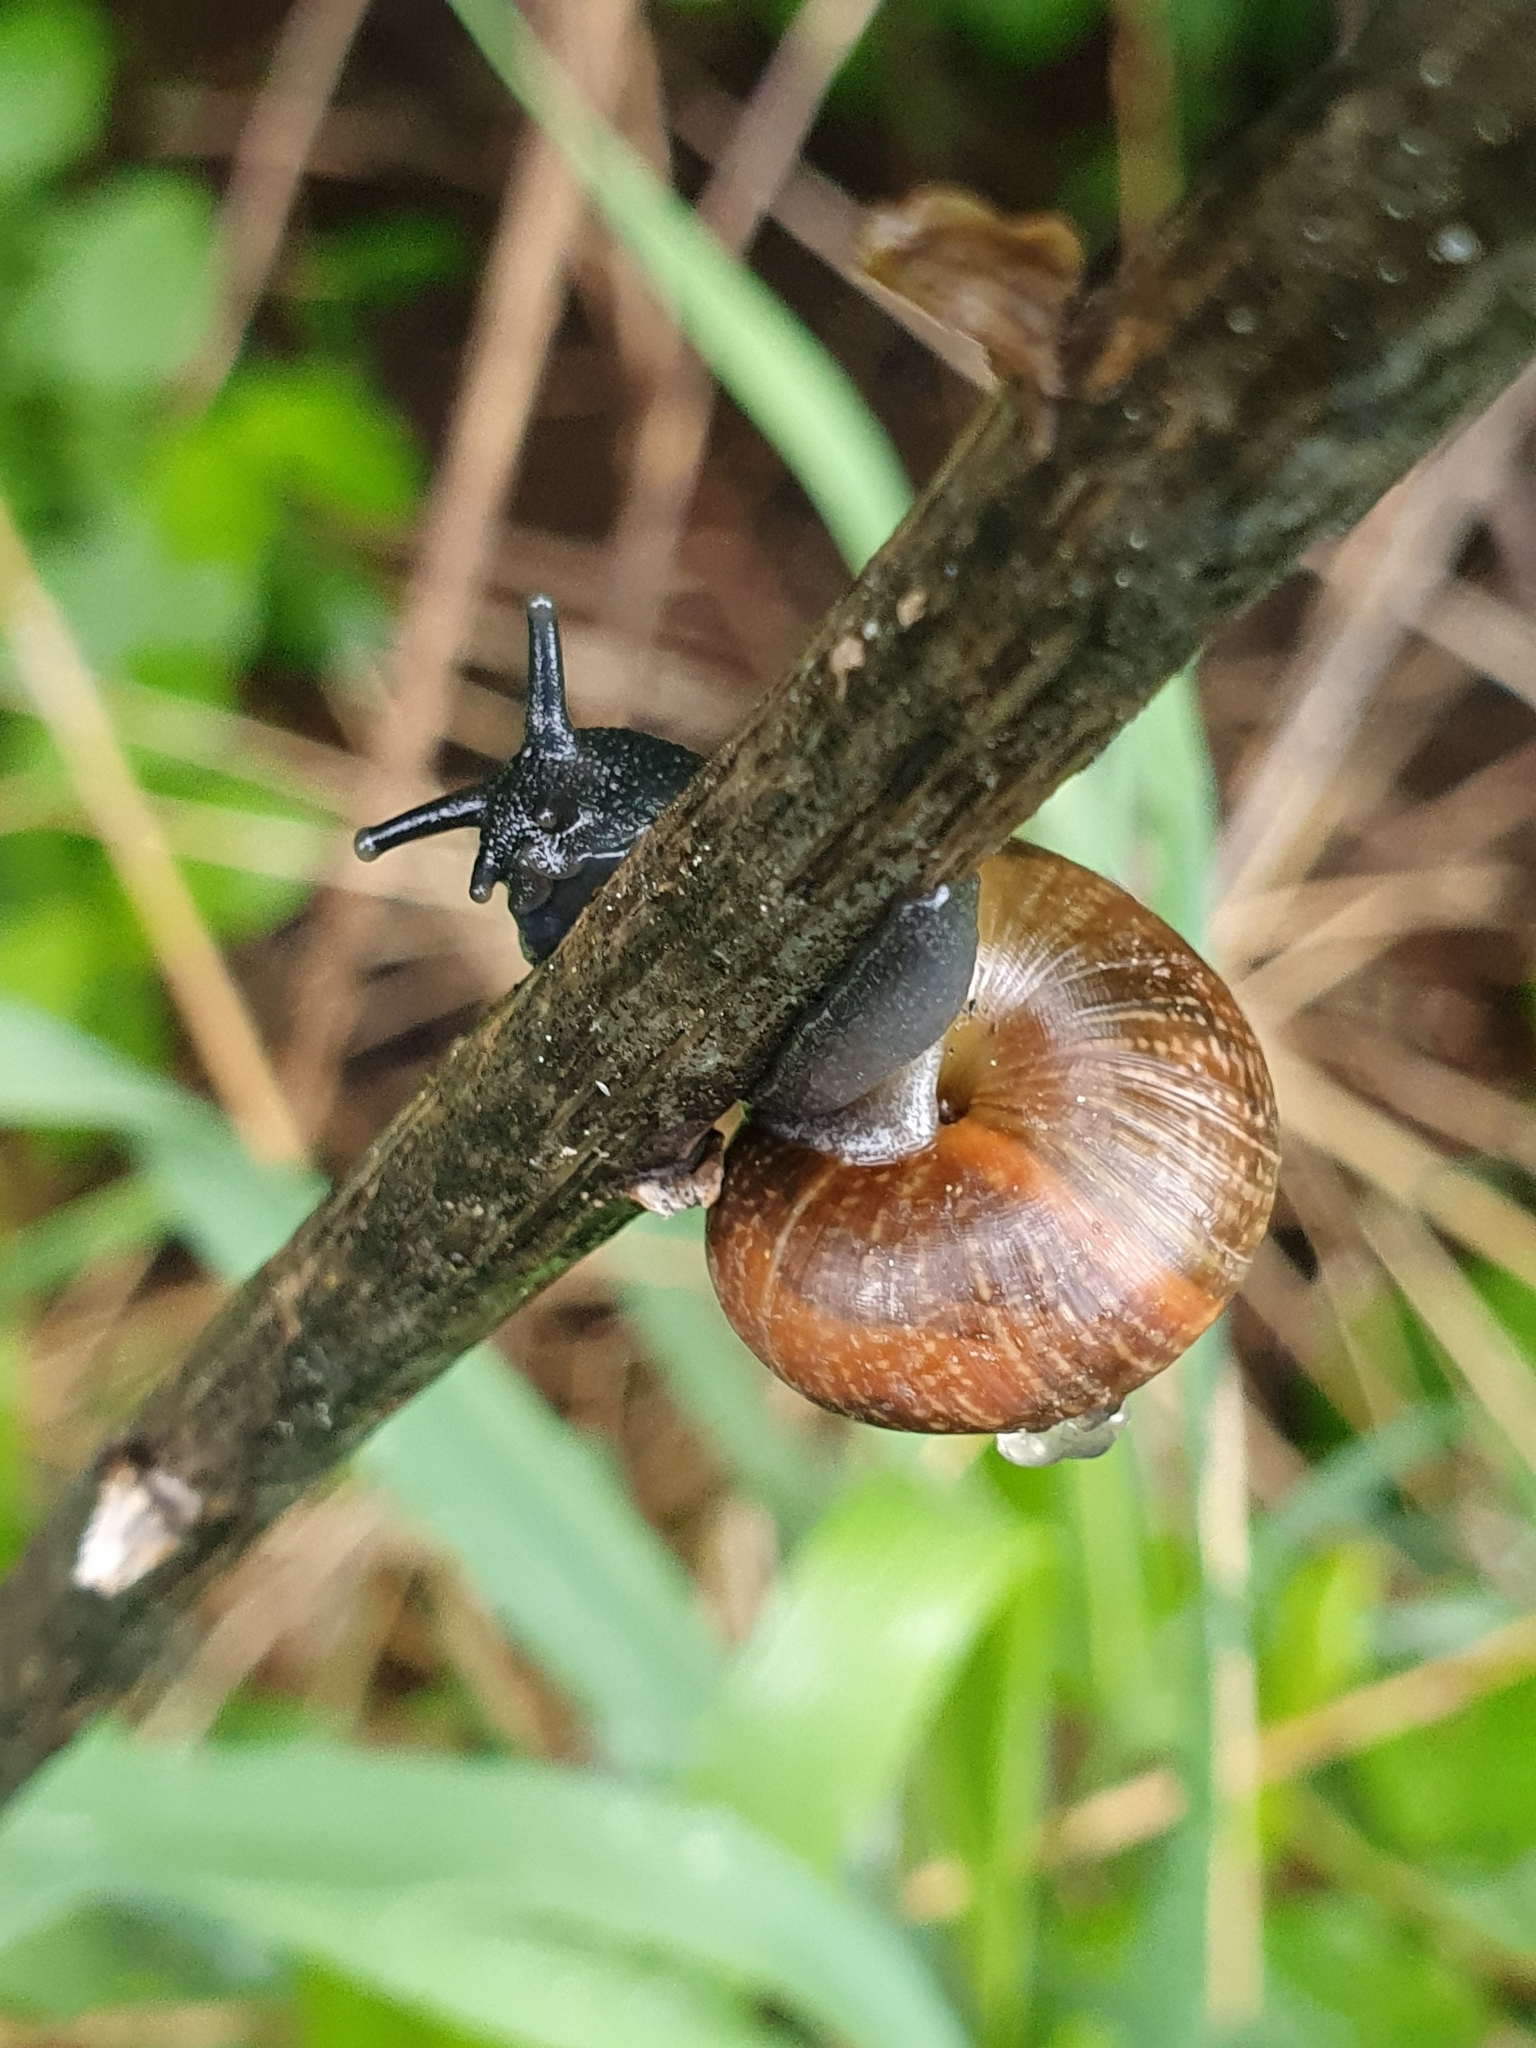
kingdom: Animalia
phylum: Mollusca
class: Gastropoda
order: Stylommatophora
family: Helicidae
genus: Arianta
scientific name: Arianta arbustorum
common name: Copse snail
